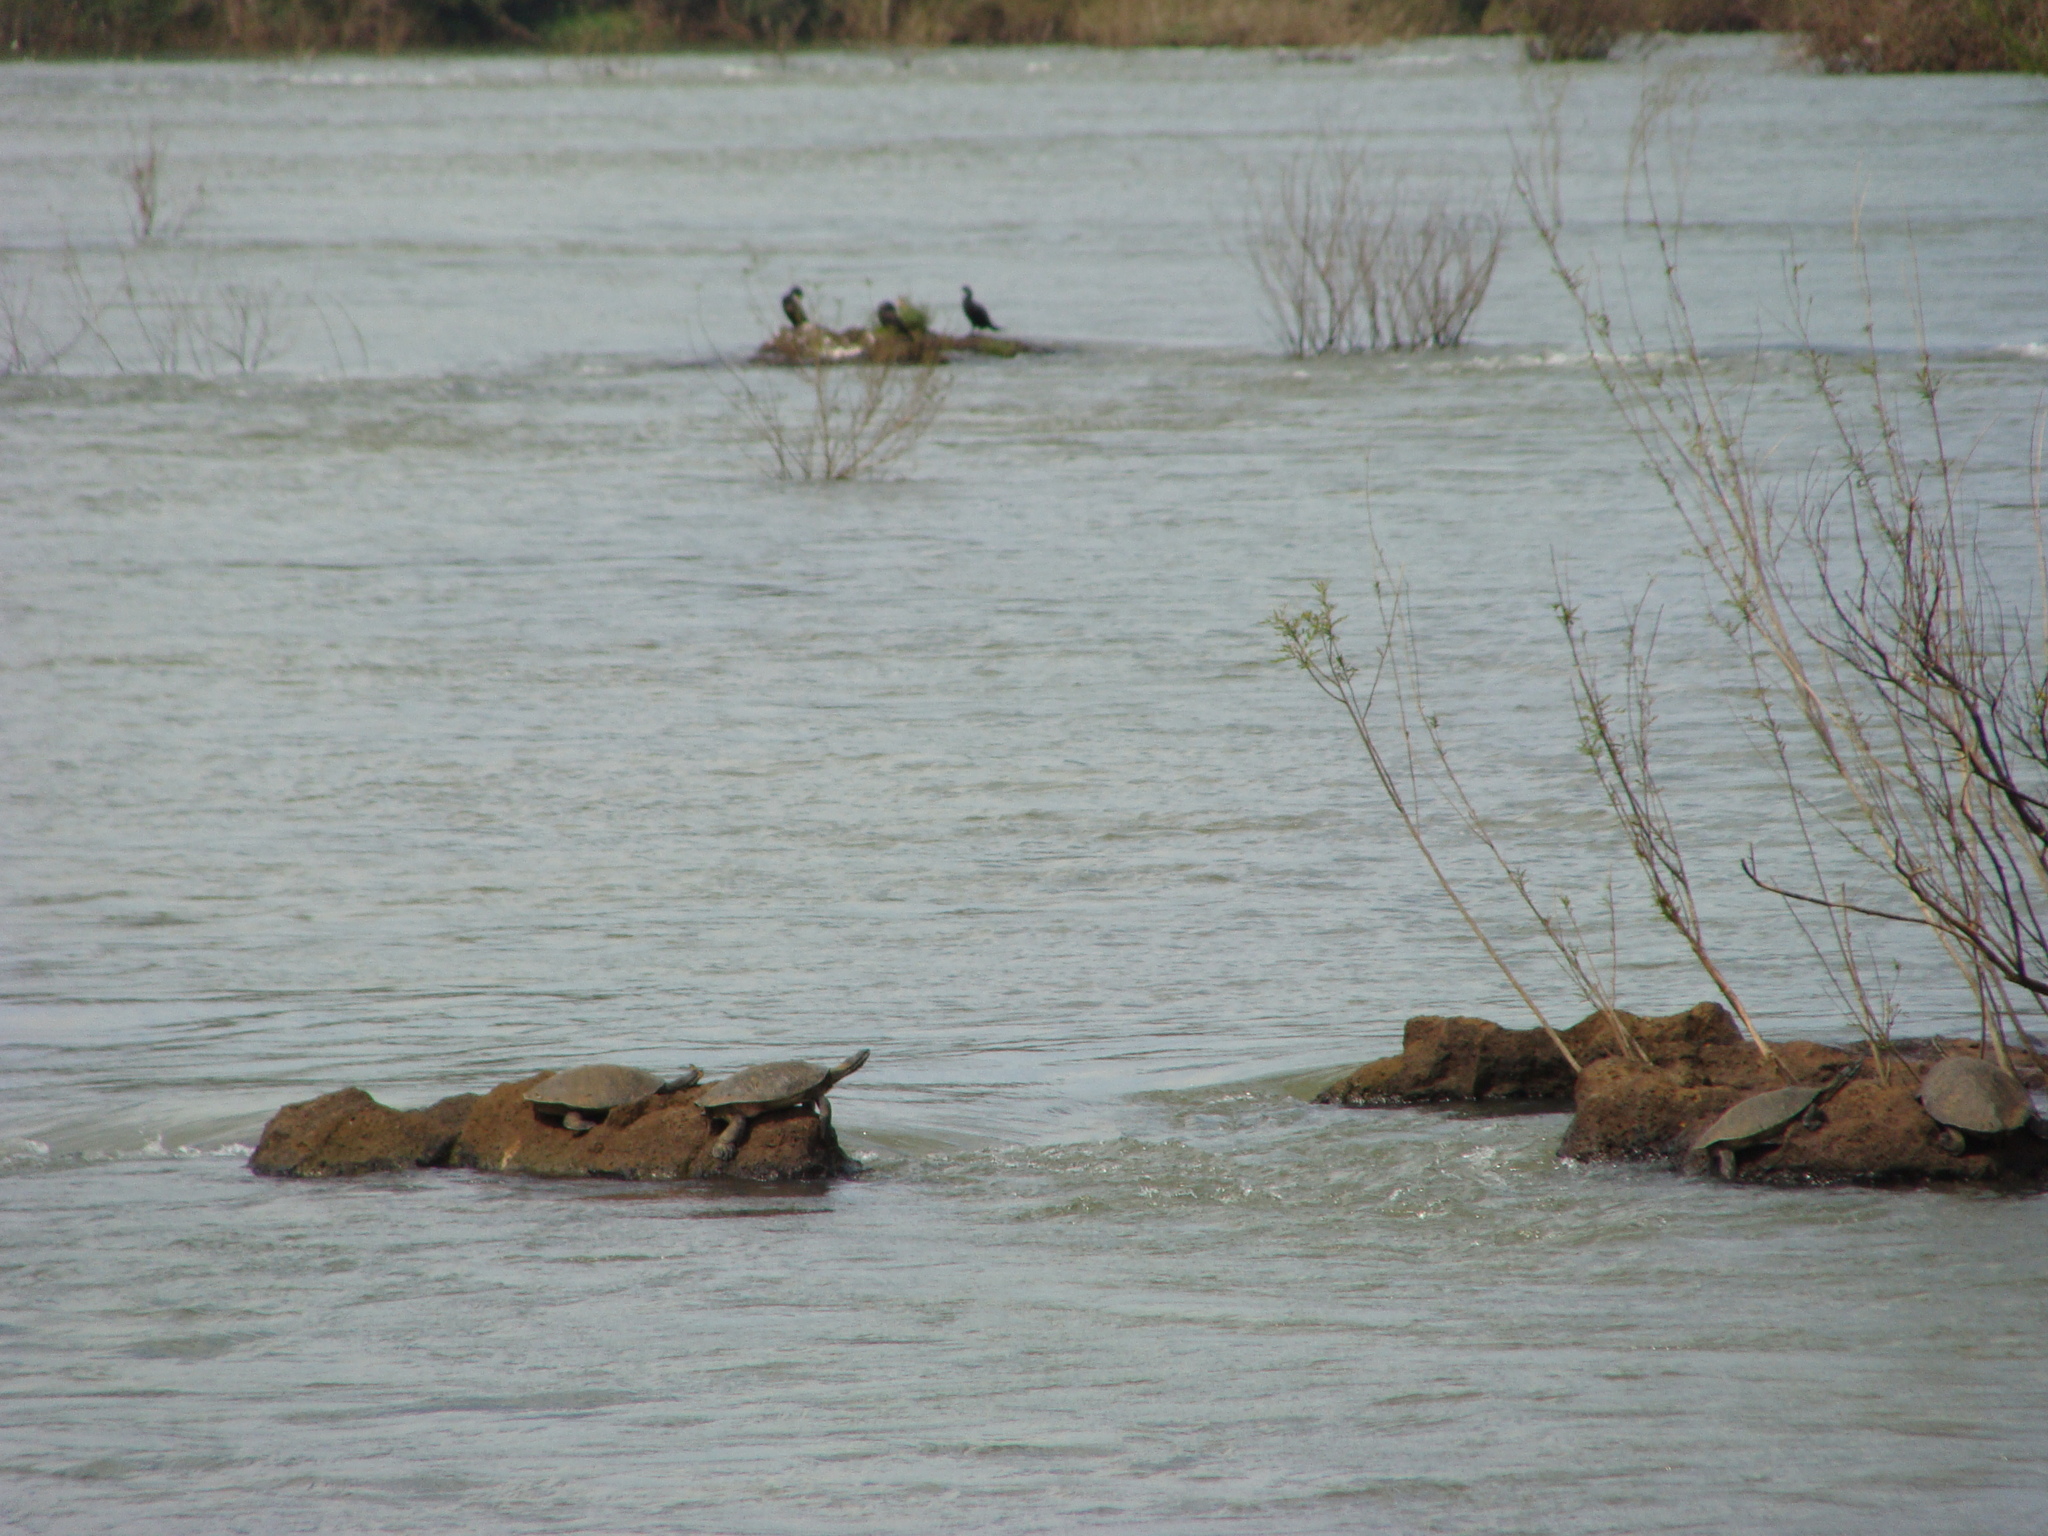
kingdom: Animalia
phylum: Chordata
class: Testudines
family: Chelidae
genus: Phrynops
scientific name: Phrynops williamsi
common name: Williams side-necked turtle
